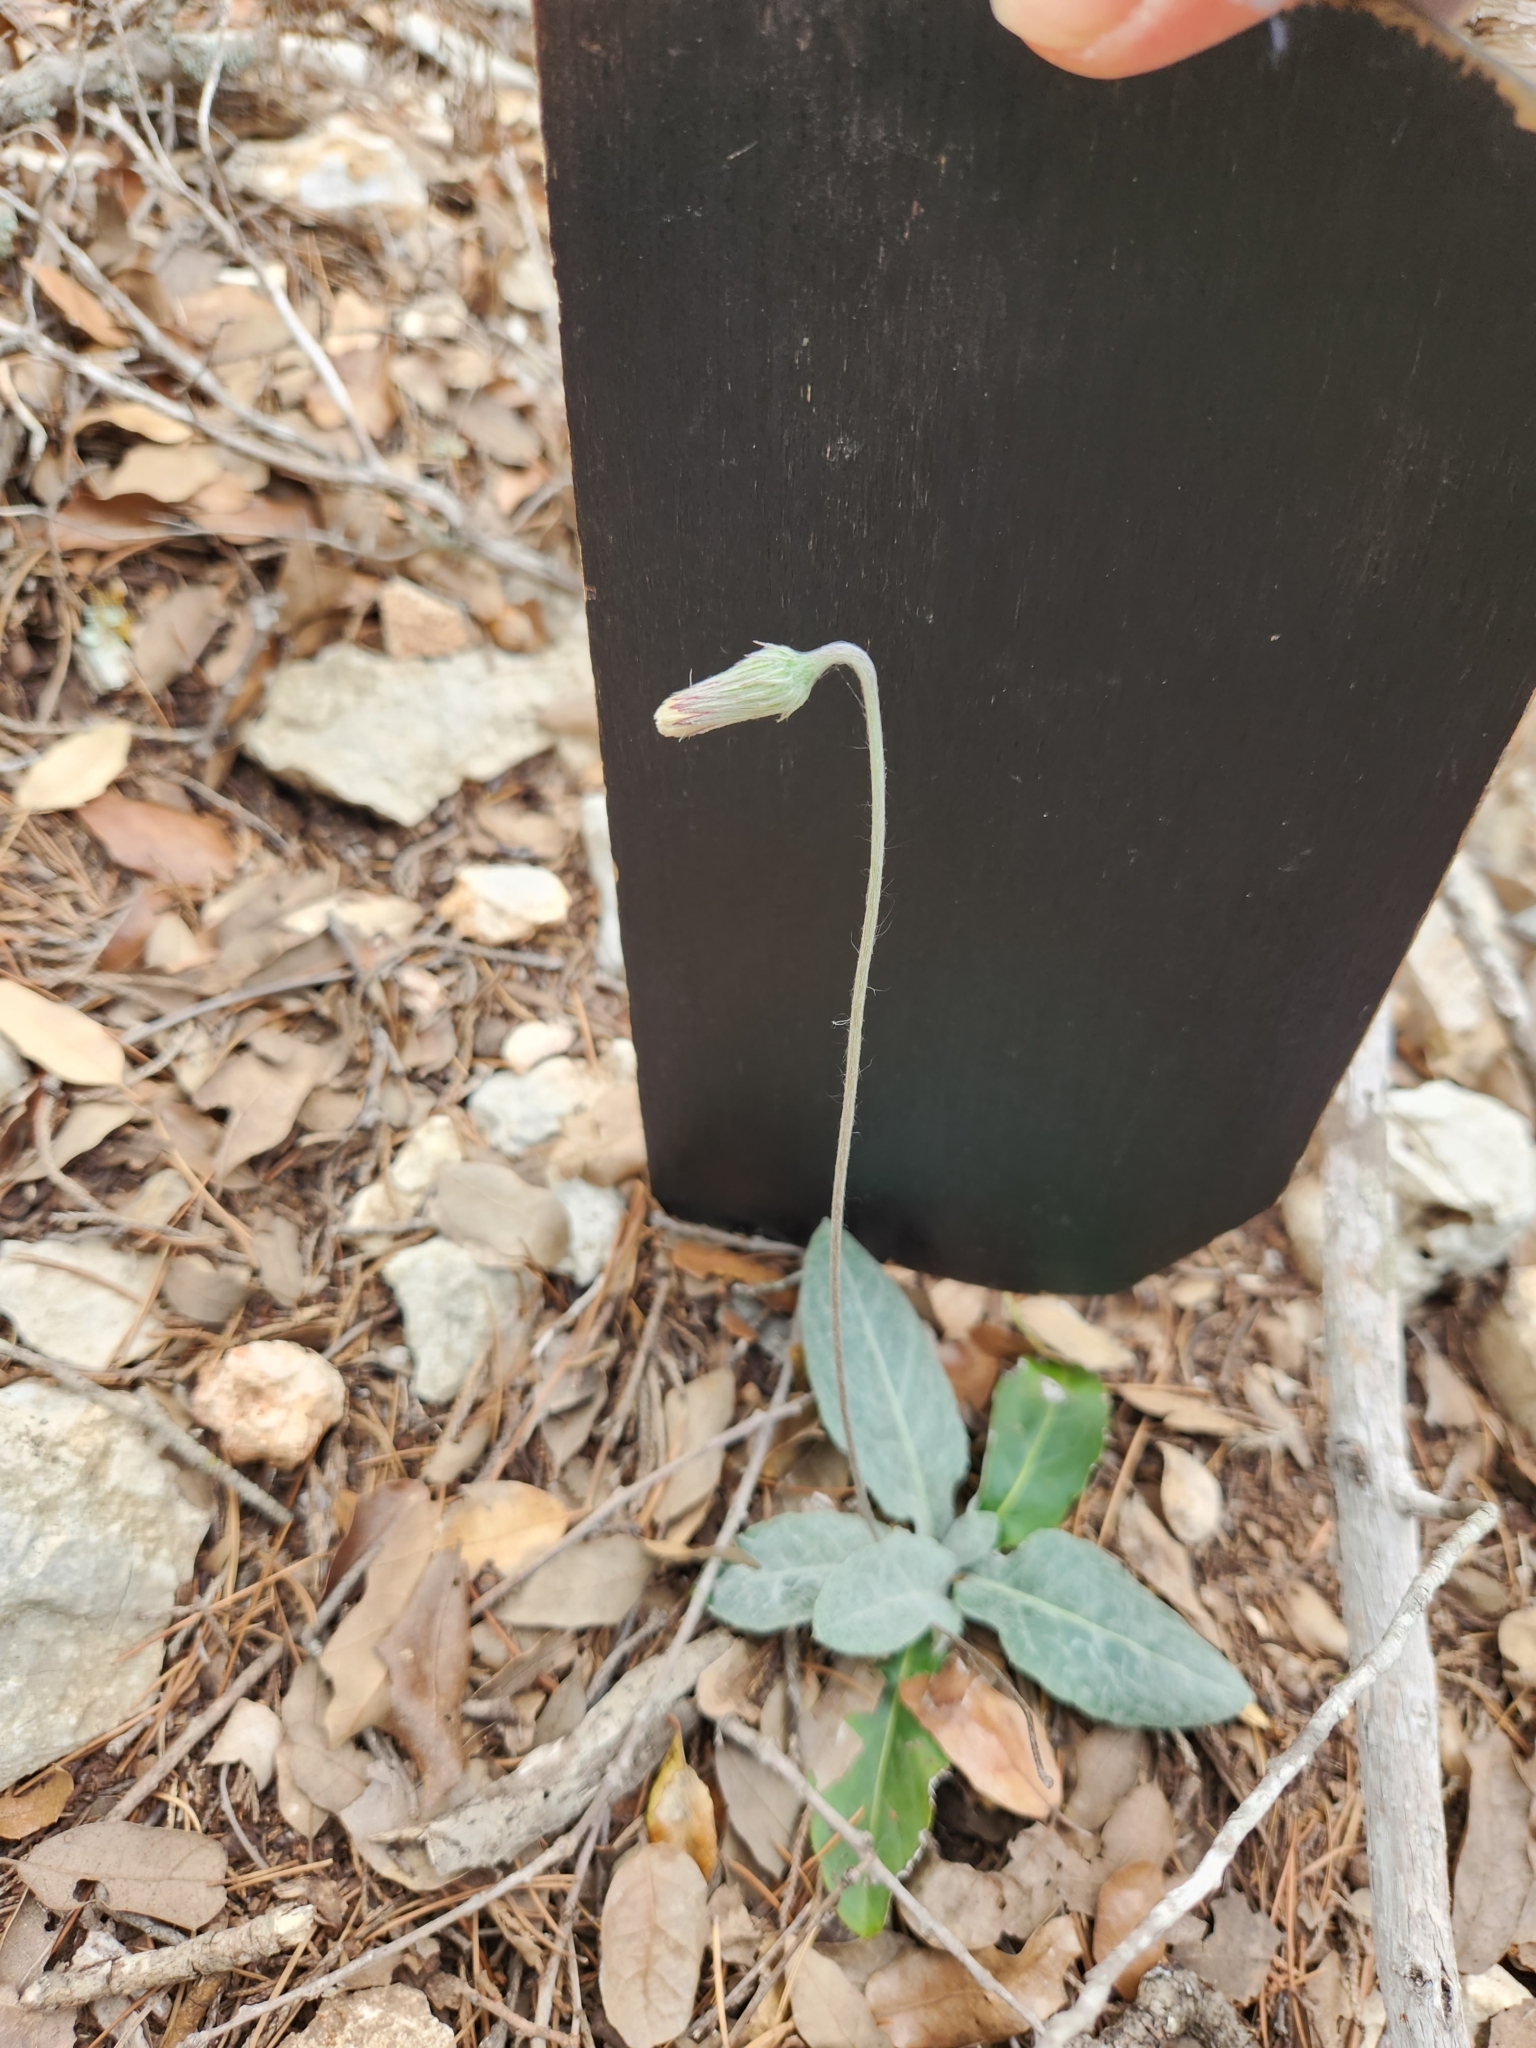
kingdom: Plantae
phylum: Tracheophyta
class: Magnoliopsida
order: Asterales
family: Asteraceae
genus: Chaptalia
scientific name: Chaptalia texana
